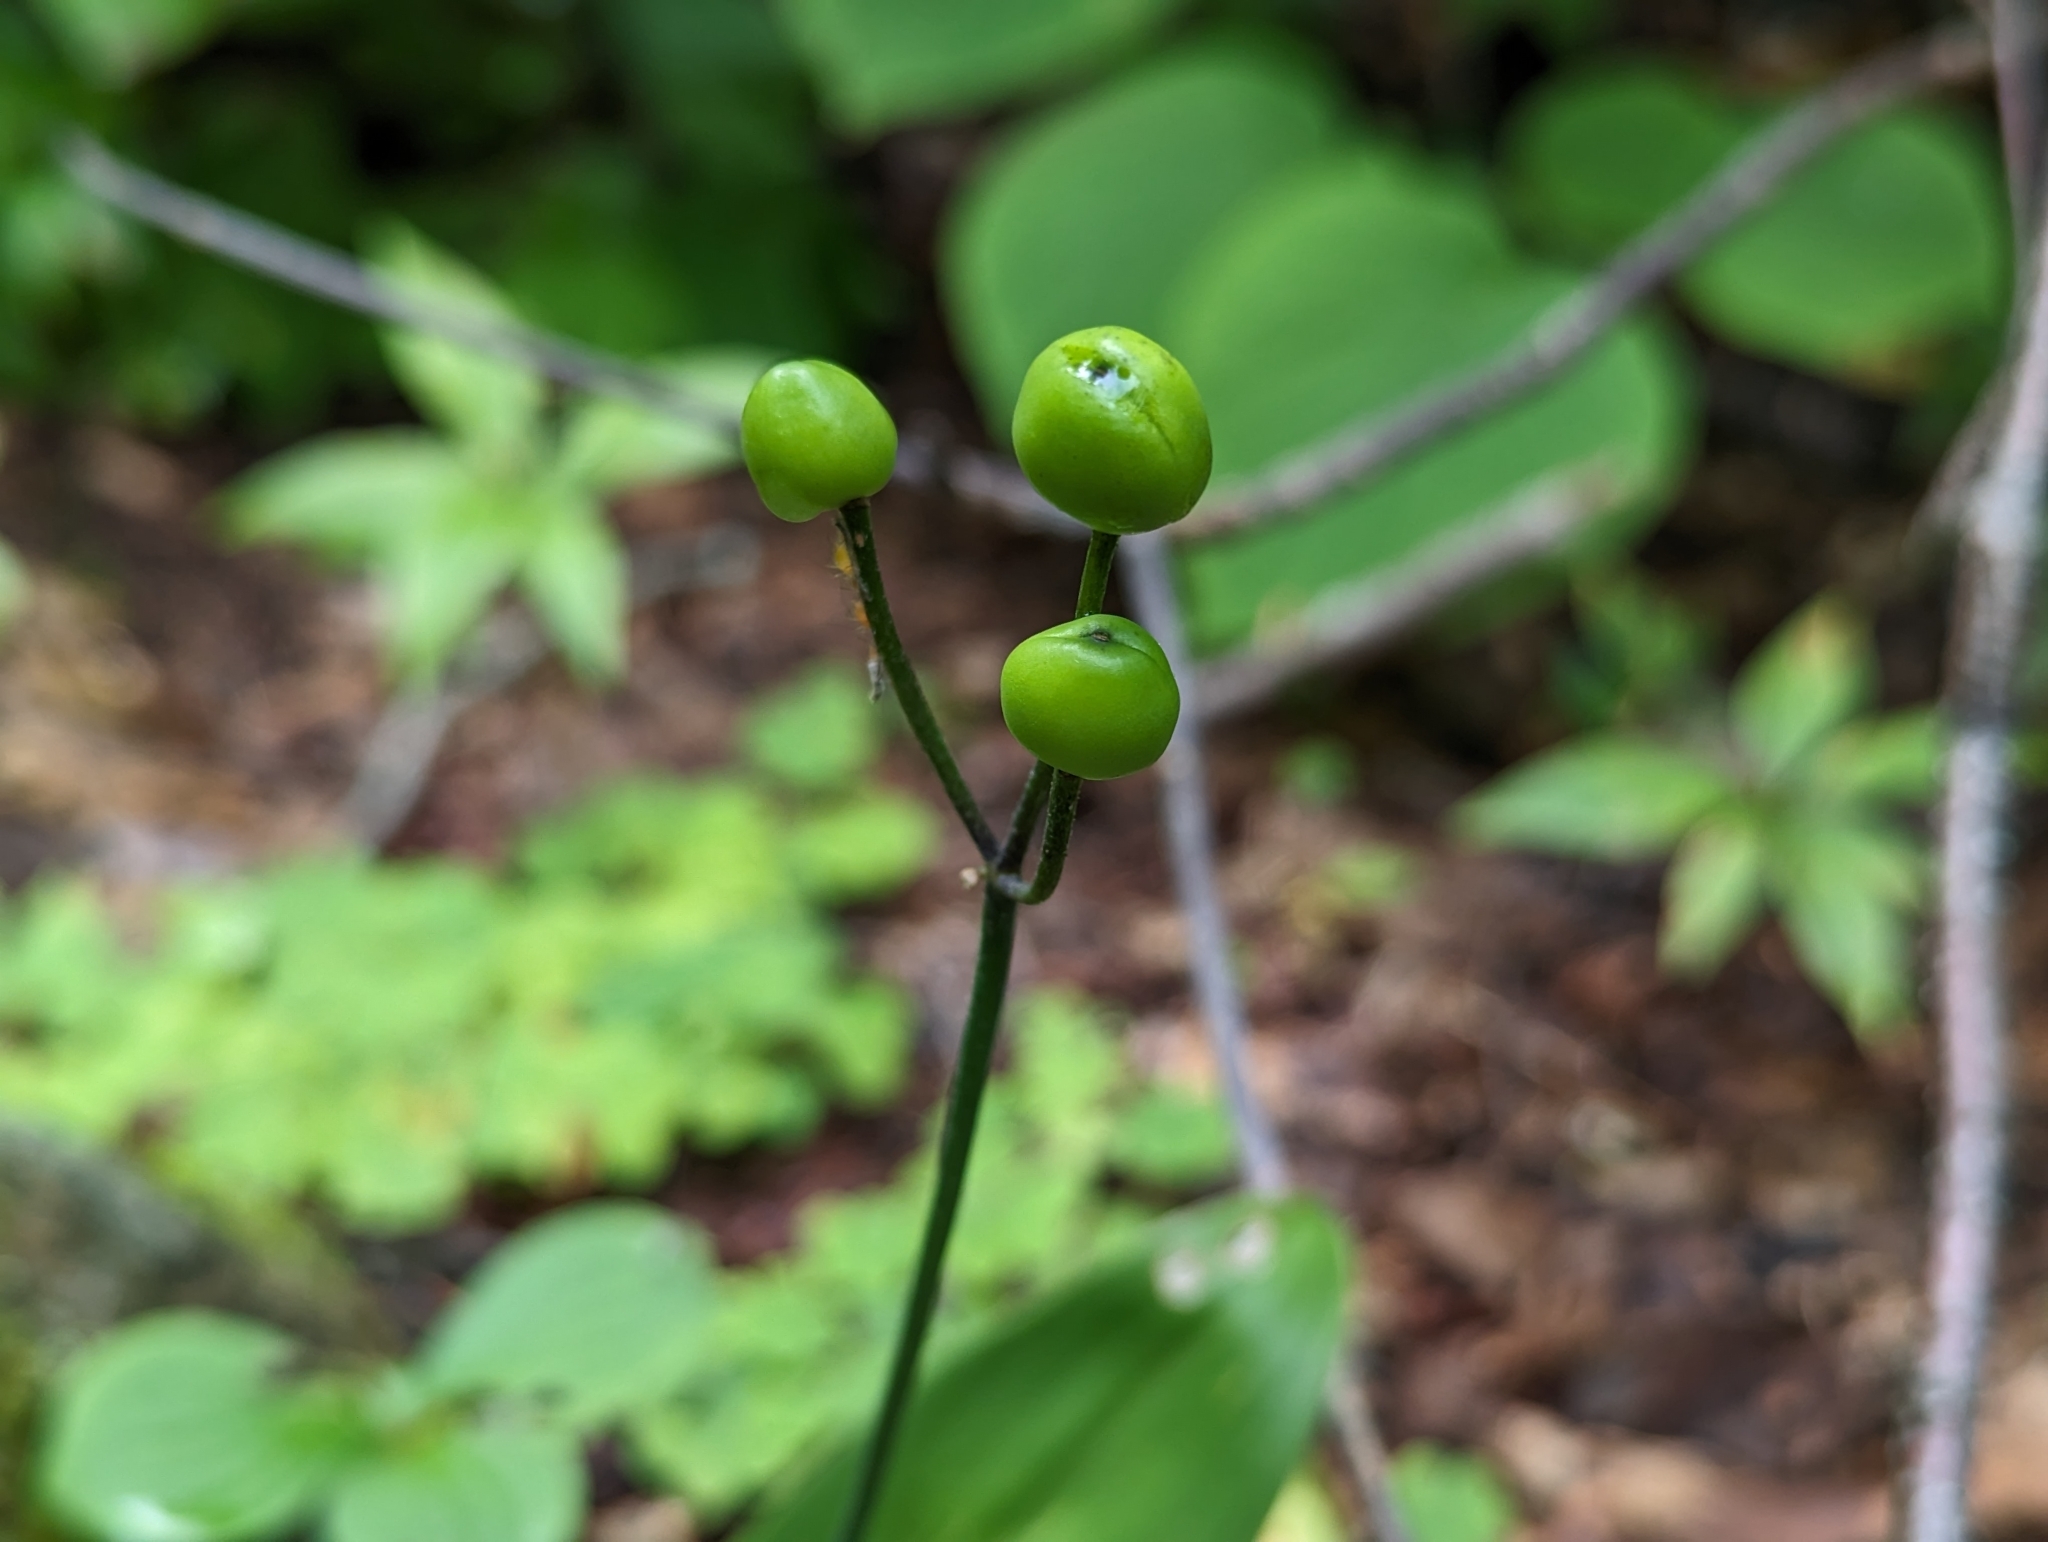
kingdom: Plantae
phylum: Tracheophyta
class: Liliopsida
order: Liliales
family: Liliaceae
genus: Clintonia
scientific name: Clintonia borealis
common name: Yellow clintonia
